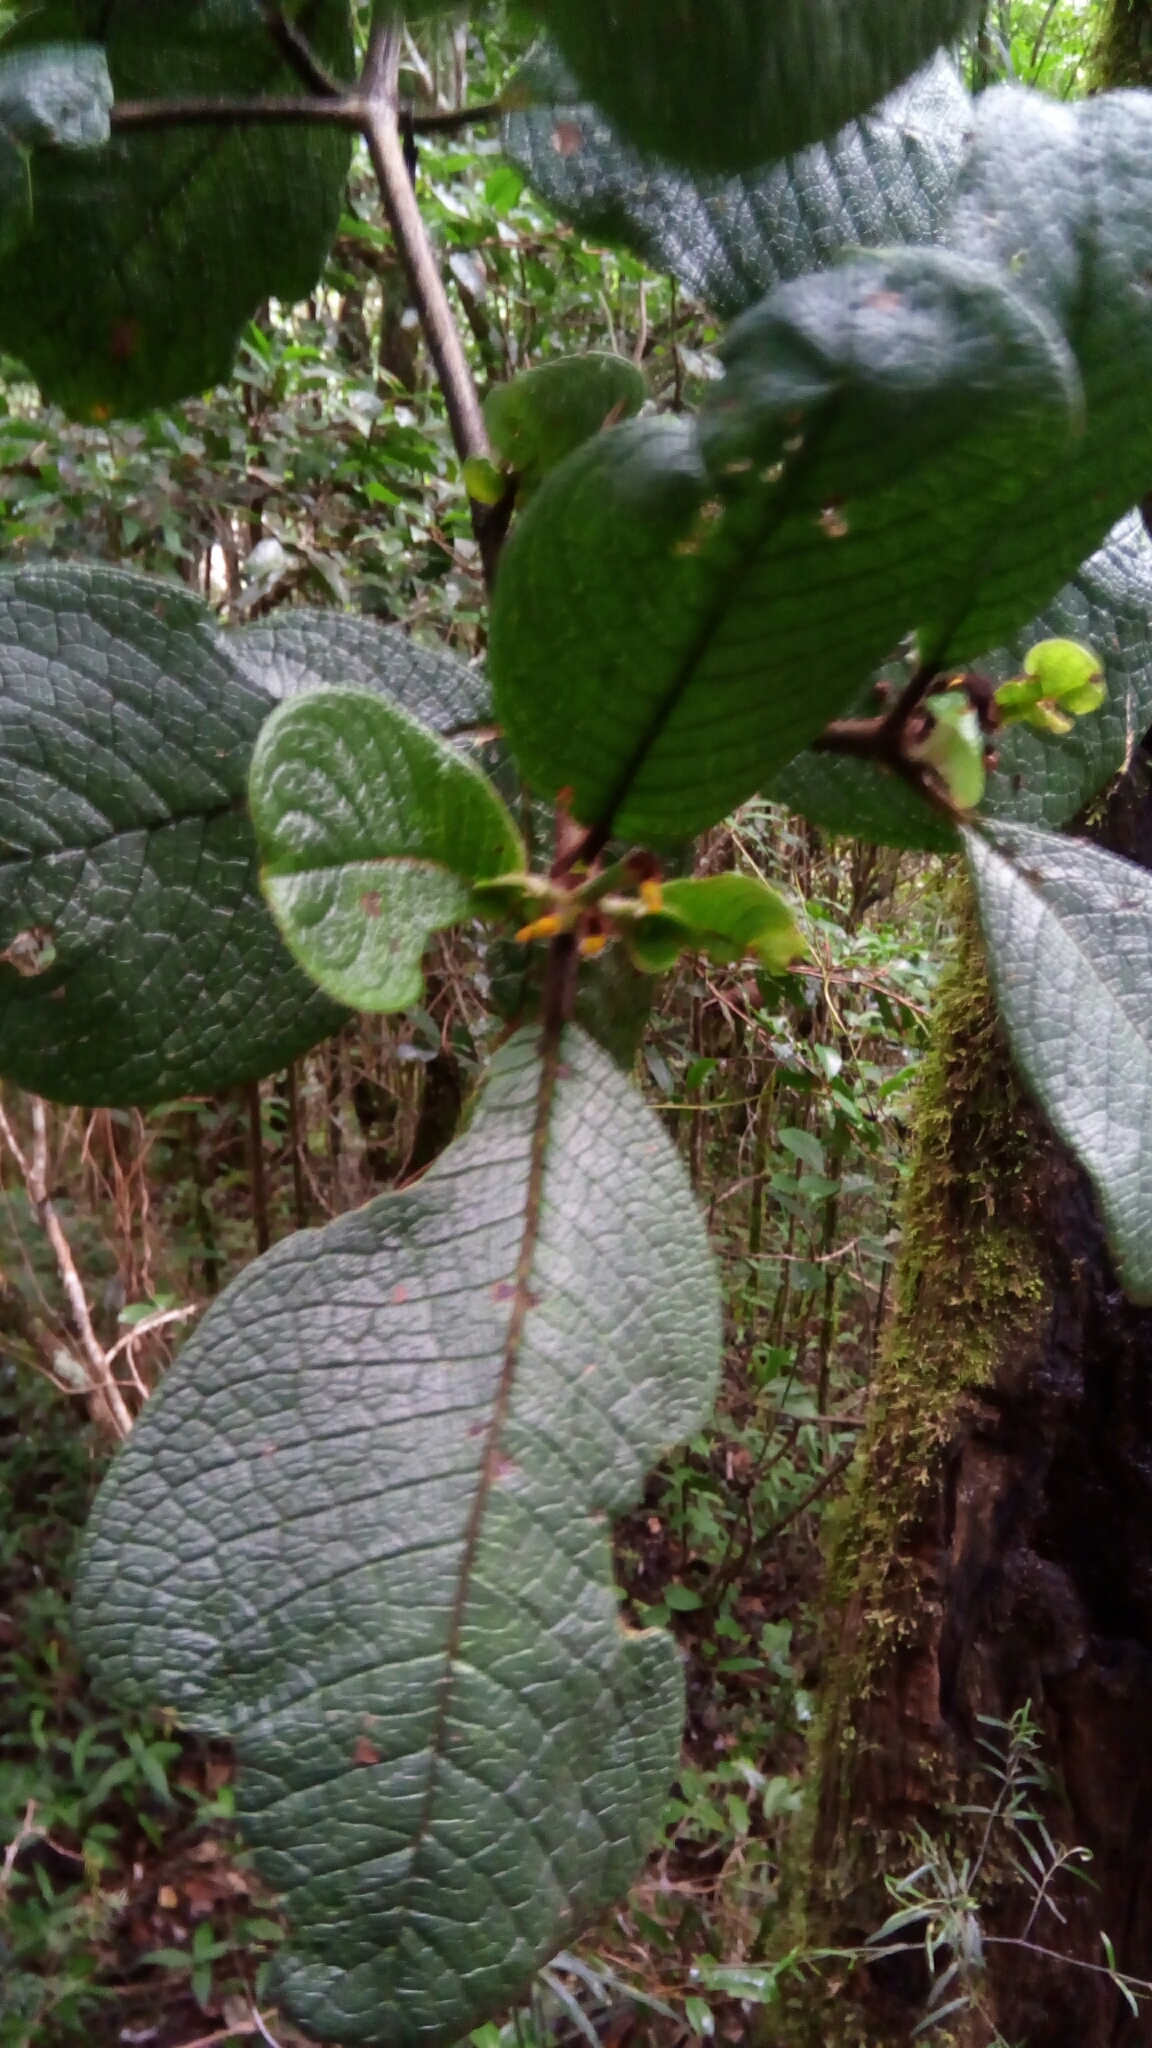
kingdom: Plantae
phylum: Tracheophyta
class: Magnoliopsida
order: Gentianales
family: Rubiaceae
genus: Psychotria
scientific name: Psychotria macrochlamys
